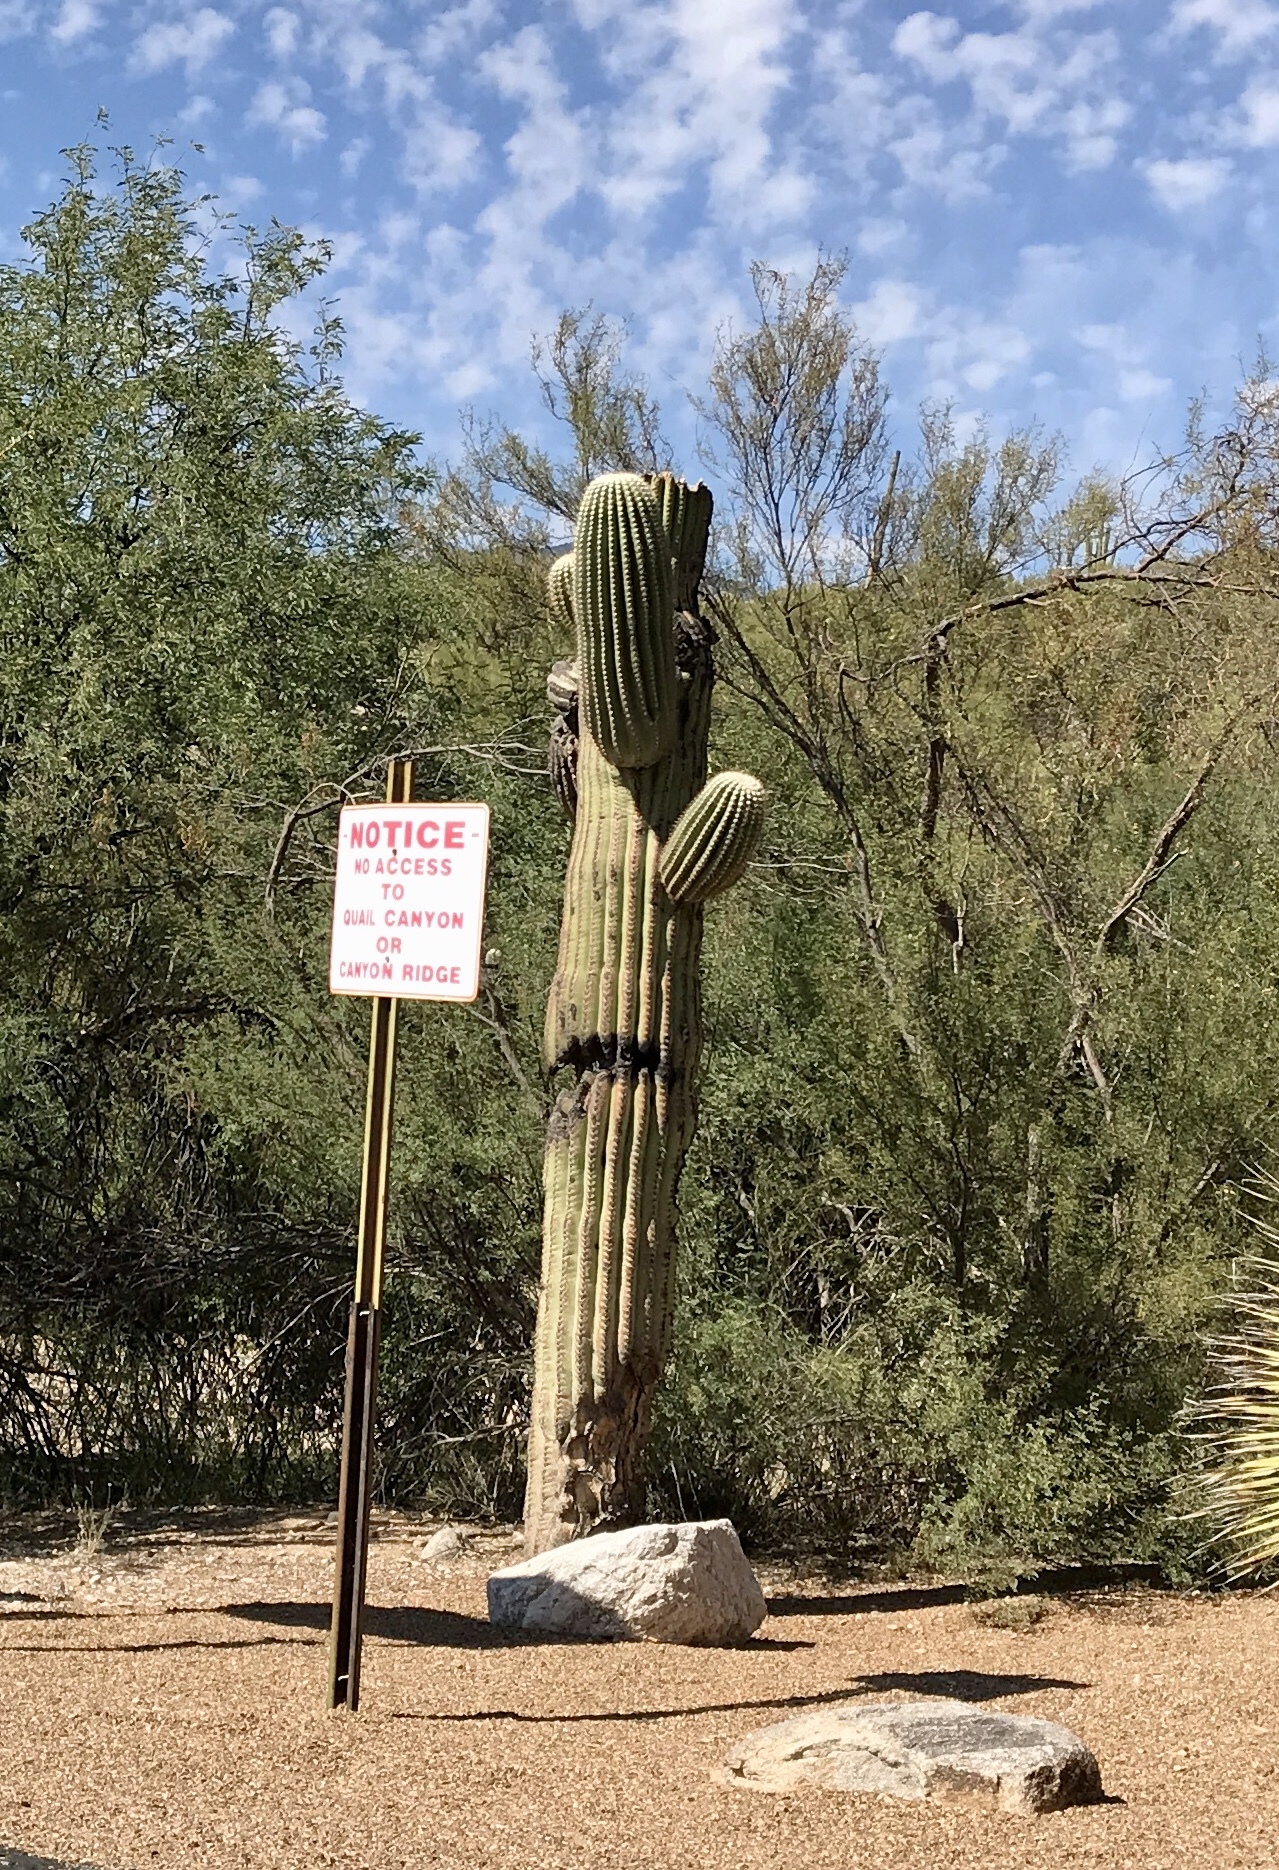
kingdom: Plantae
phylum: Tracheophyta
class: Magnoliopsida
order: Caryophyllales
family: Cactaceae
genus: Carnegiea
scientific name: Carnegiea gigantea
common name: Saguaro
